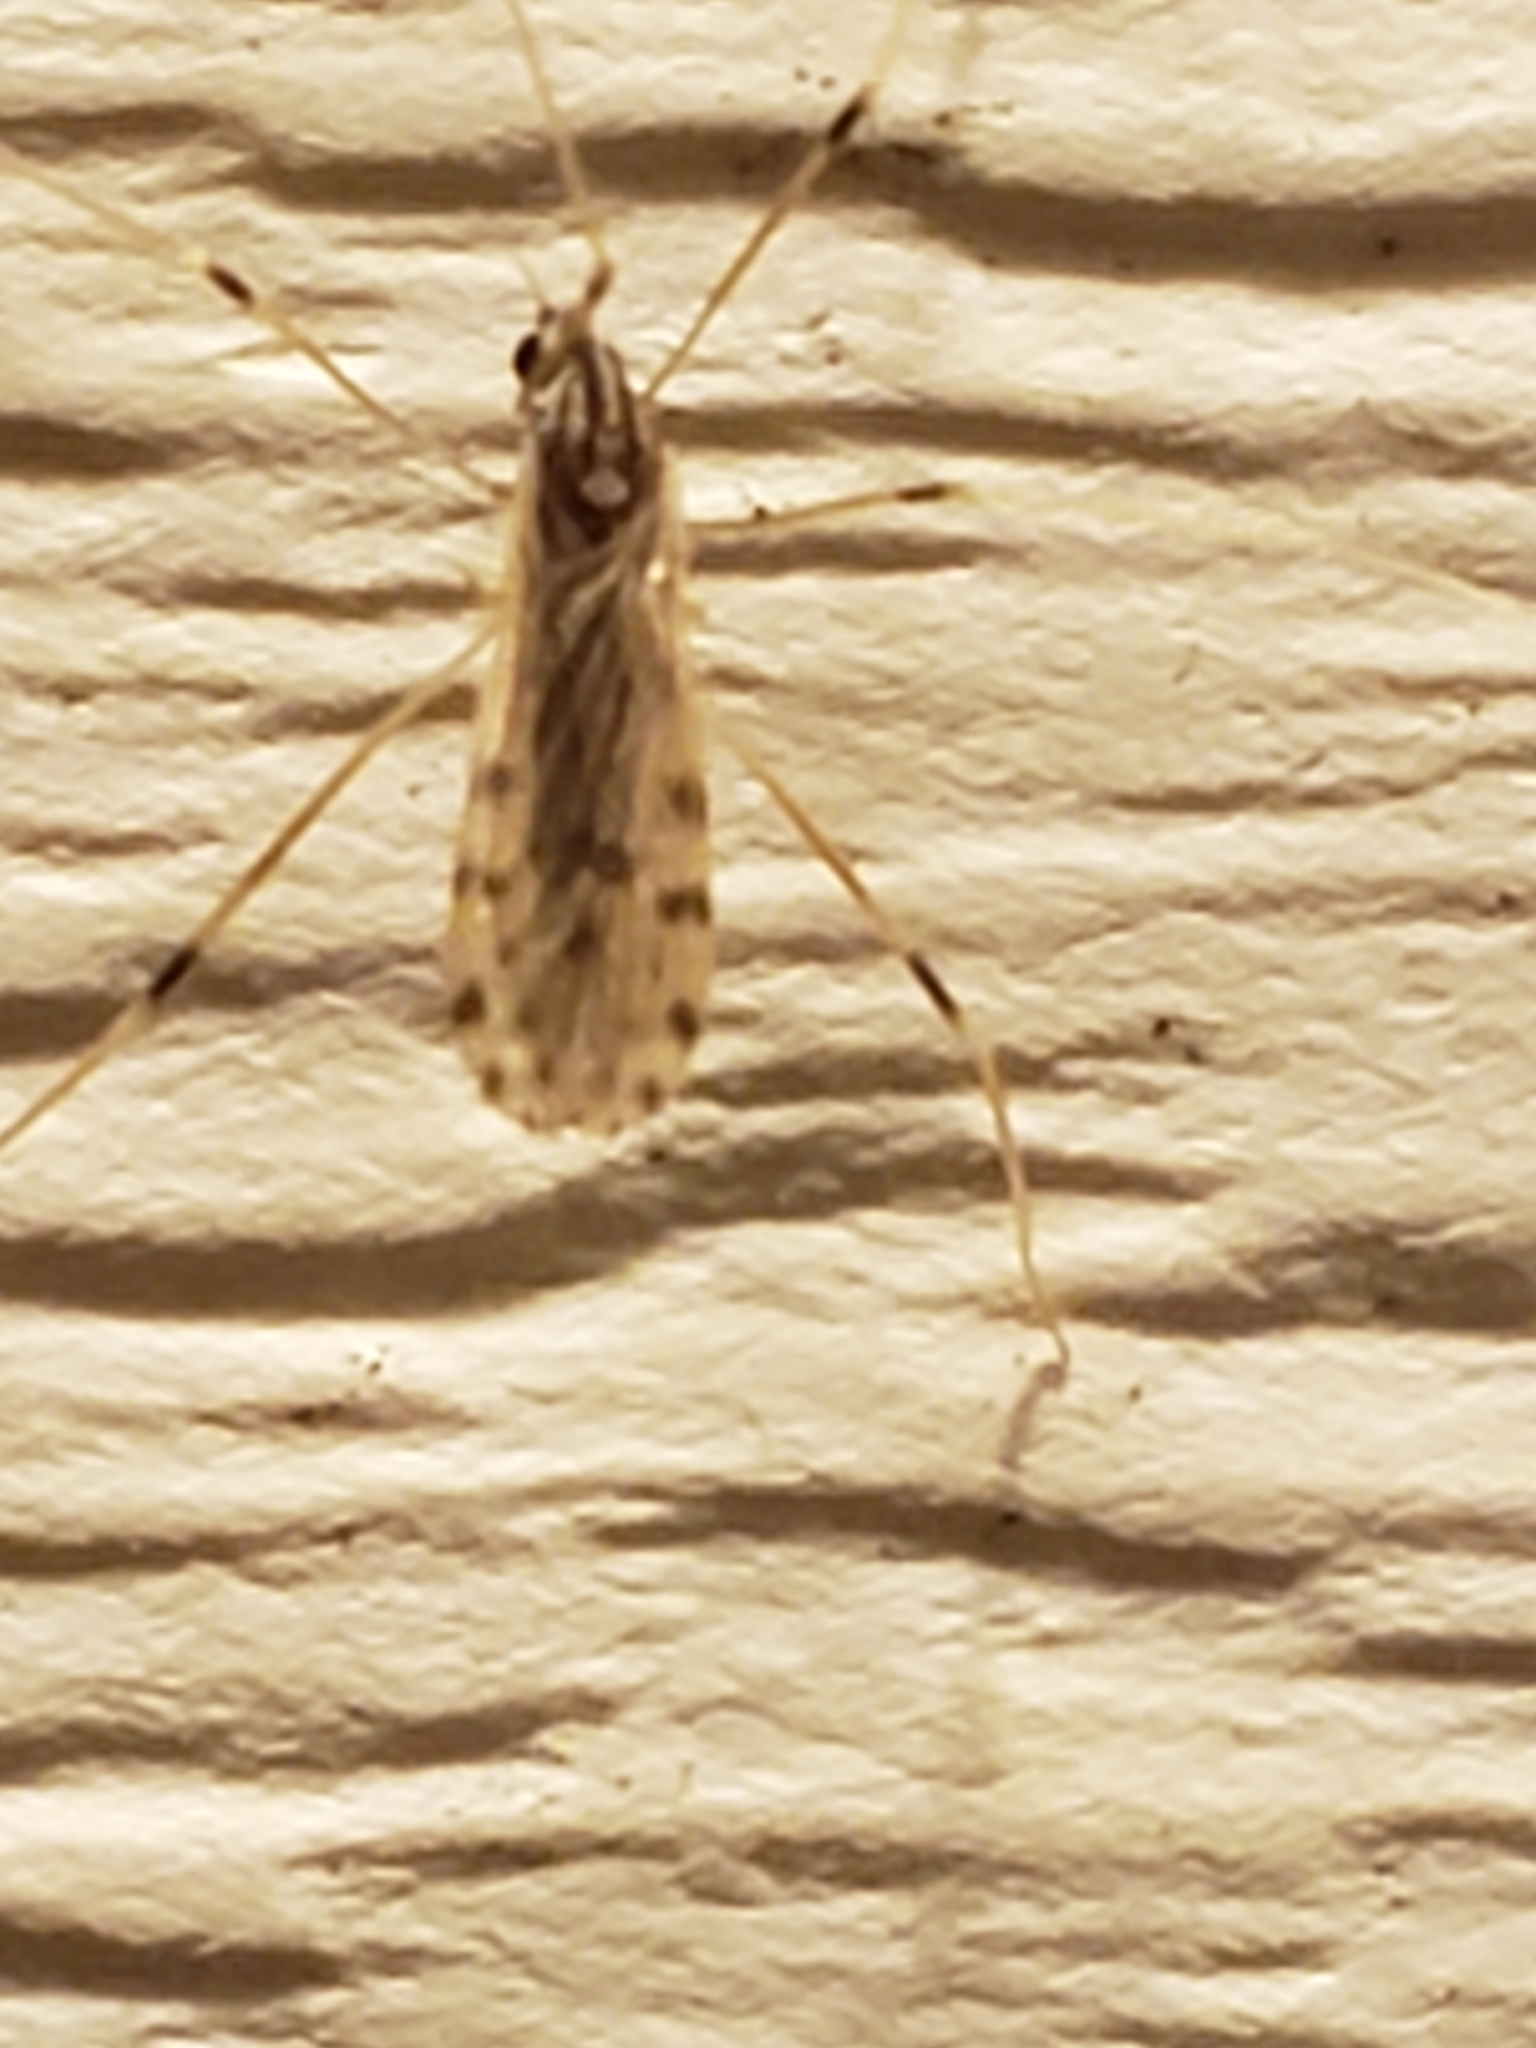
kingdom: Animalia
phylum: Arthropoda
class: Insecta
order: Diptera
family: Limoniidae
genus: Erioptera
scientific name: Erioptera parva
